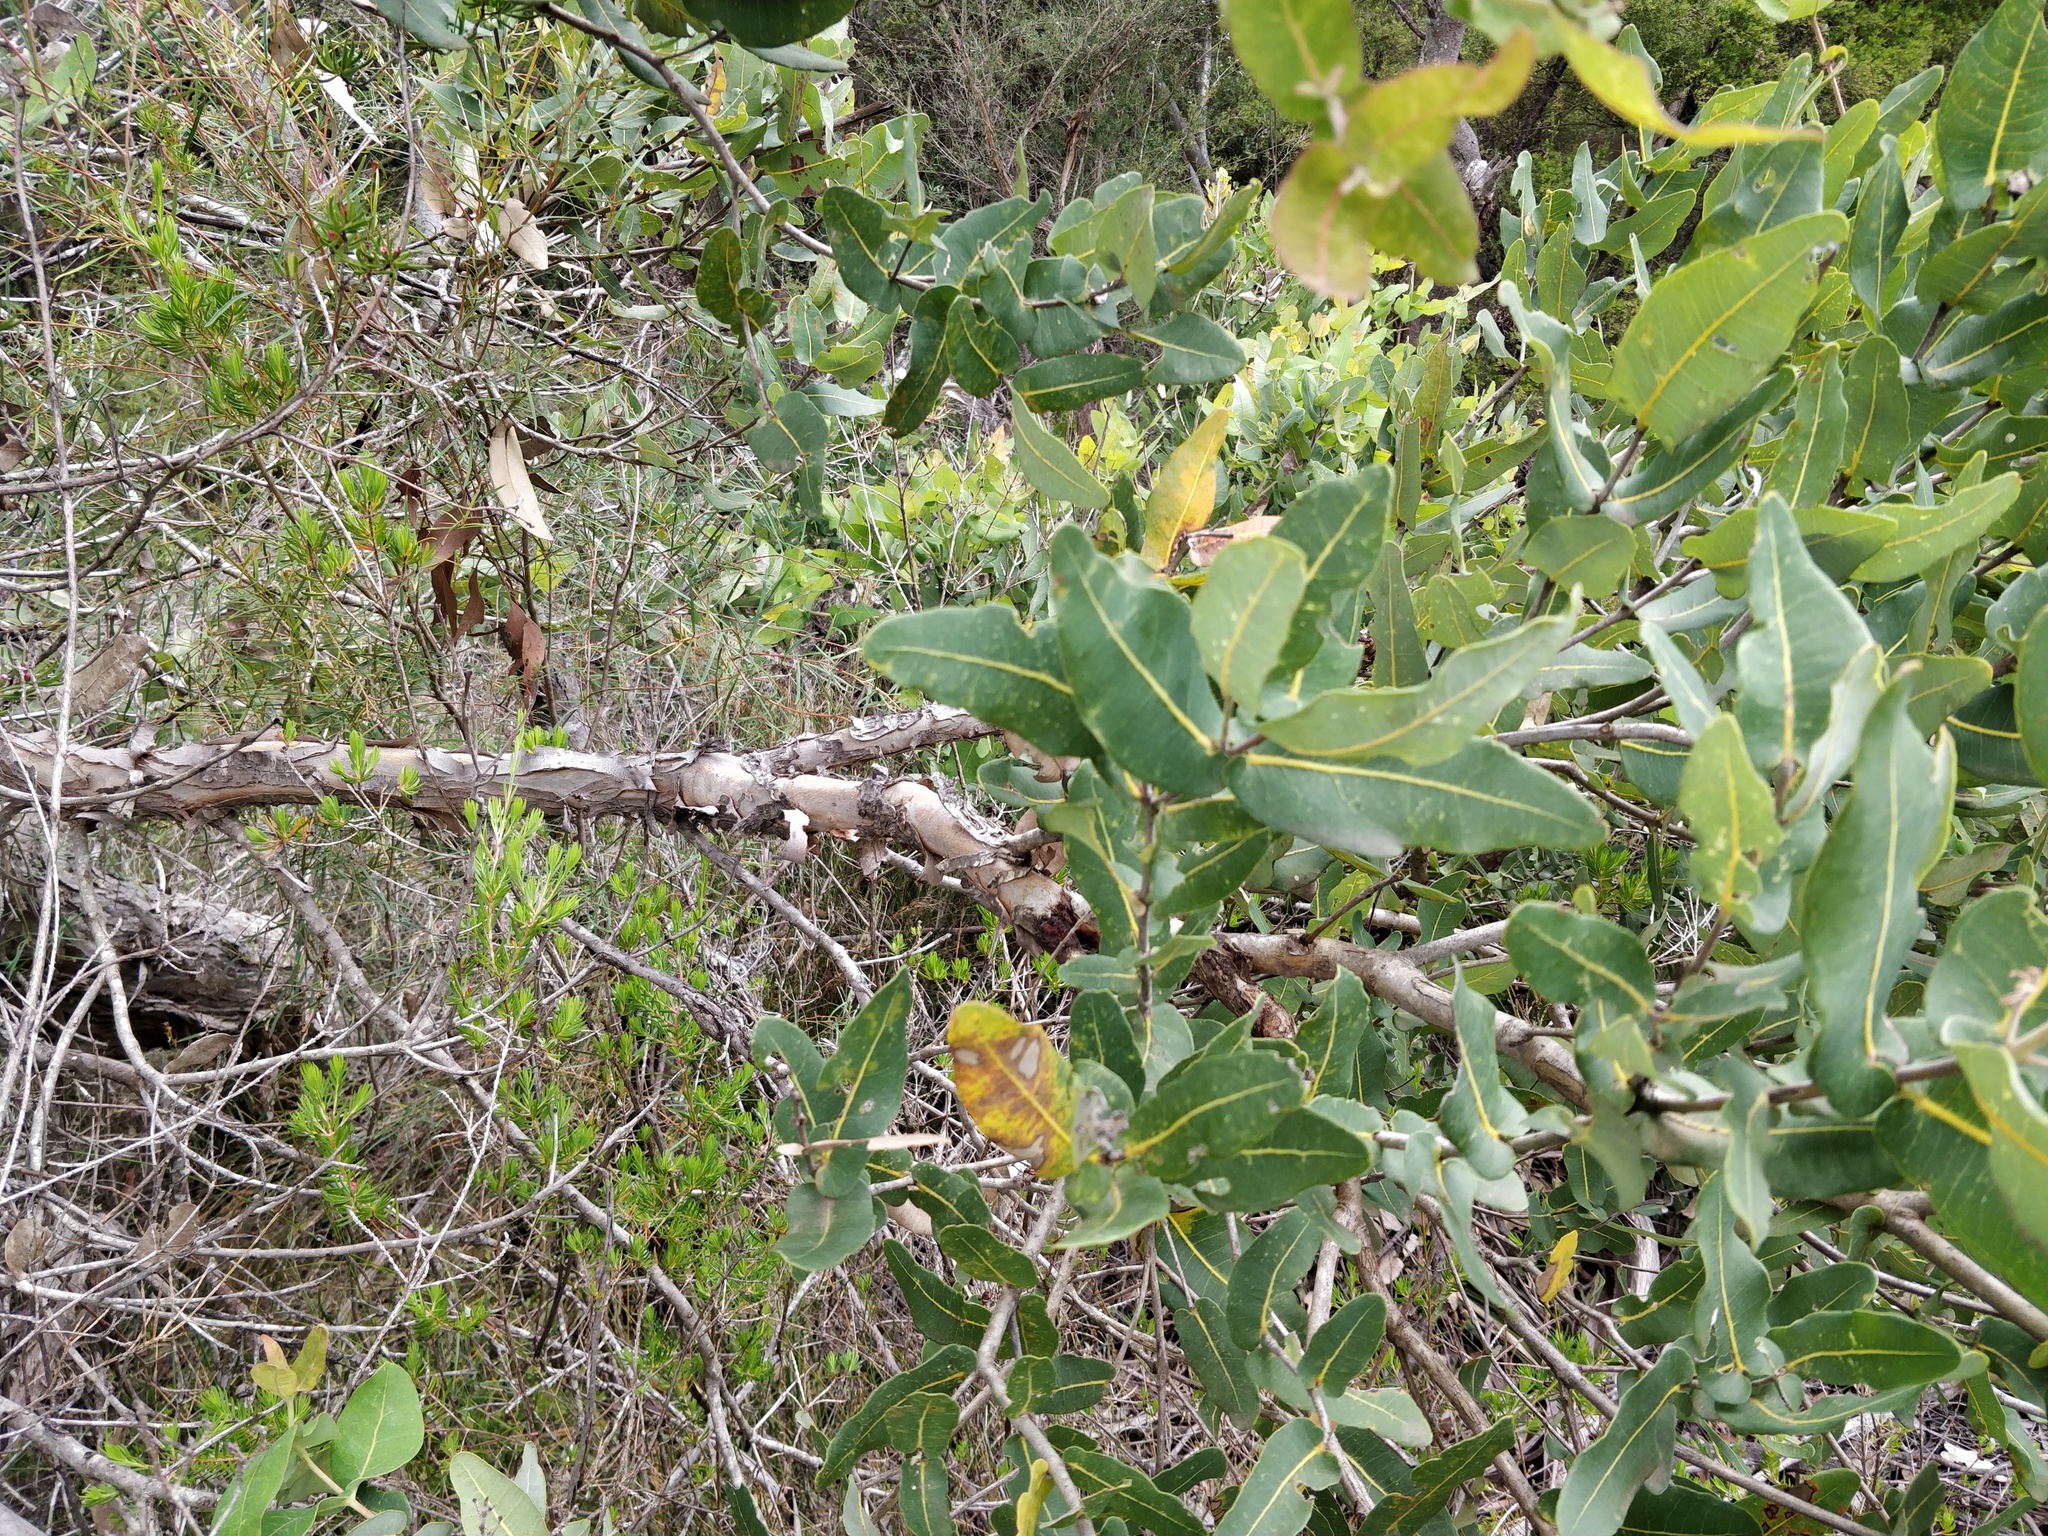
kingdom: Plantae
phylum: Tracheophyta
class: Magnoliopsida
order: Myrtales
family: Myrtaceae
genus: Angophora
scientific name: Angophora hispida
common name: Dwarf-apple
